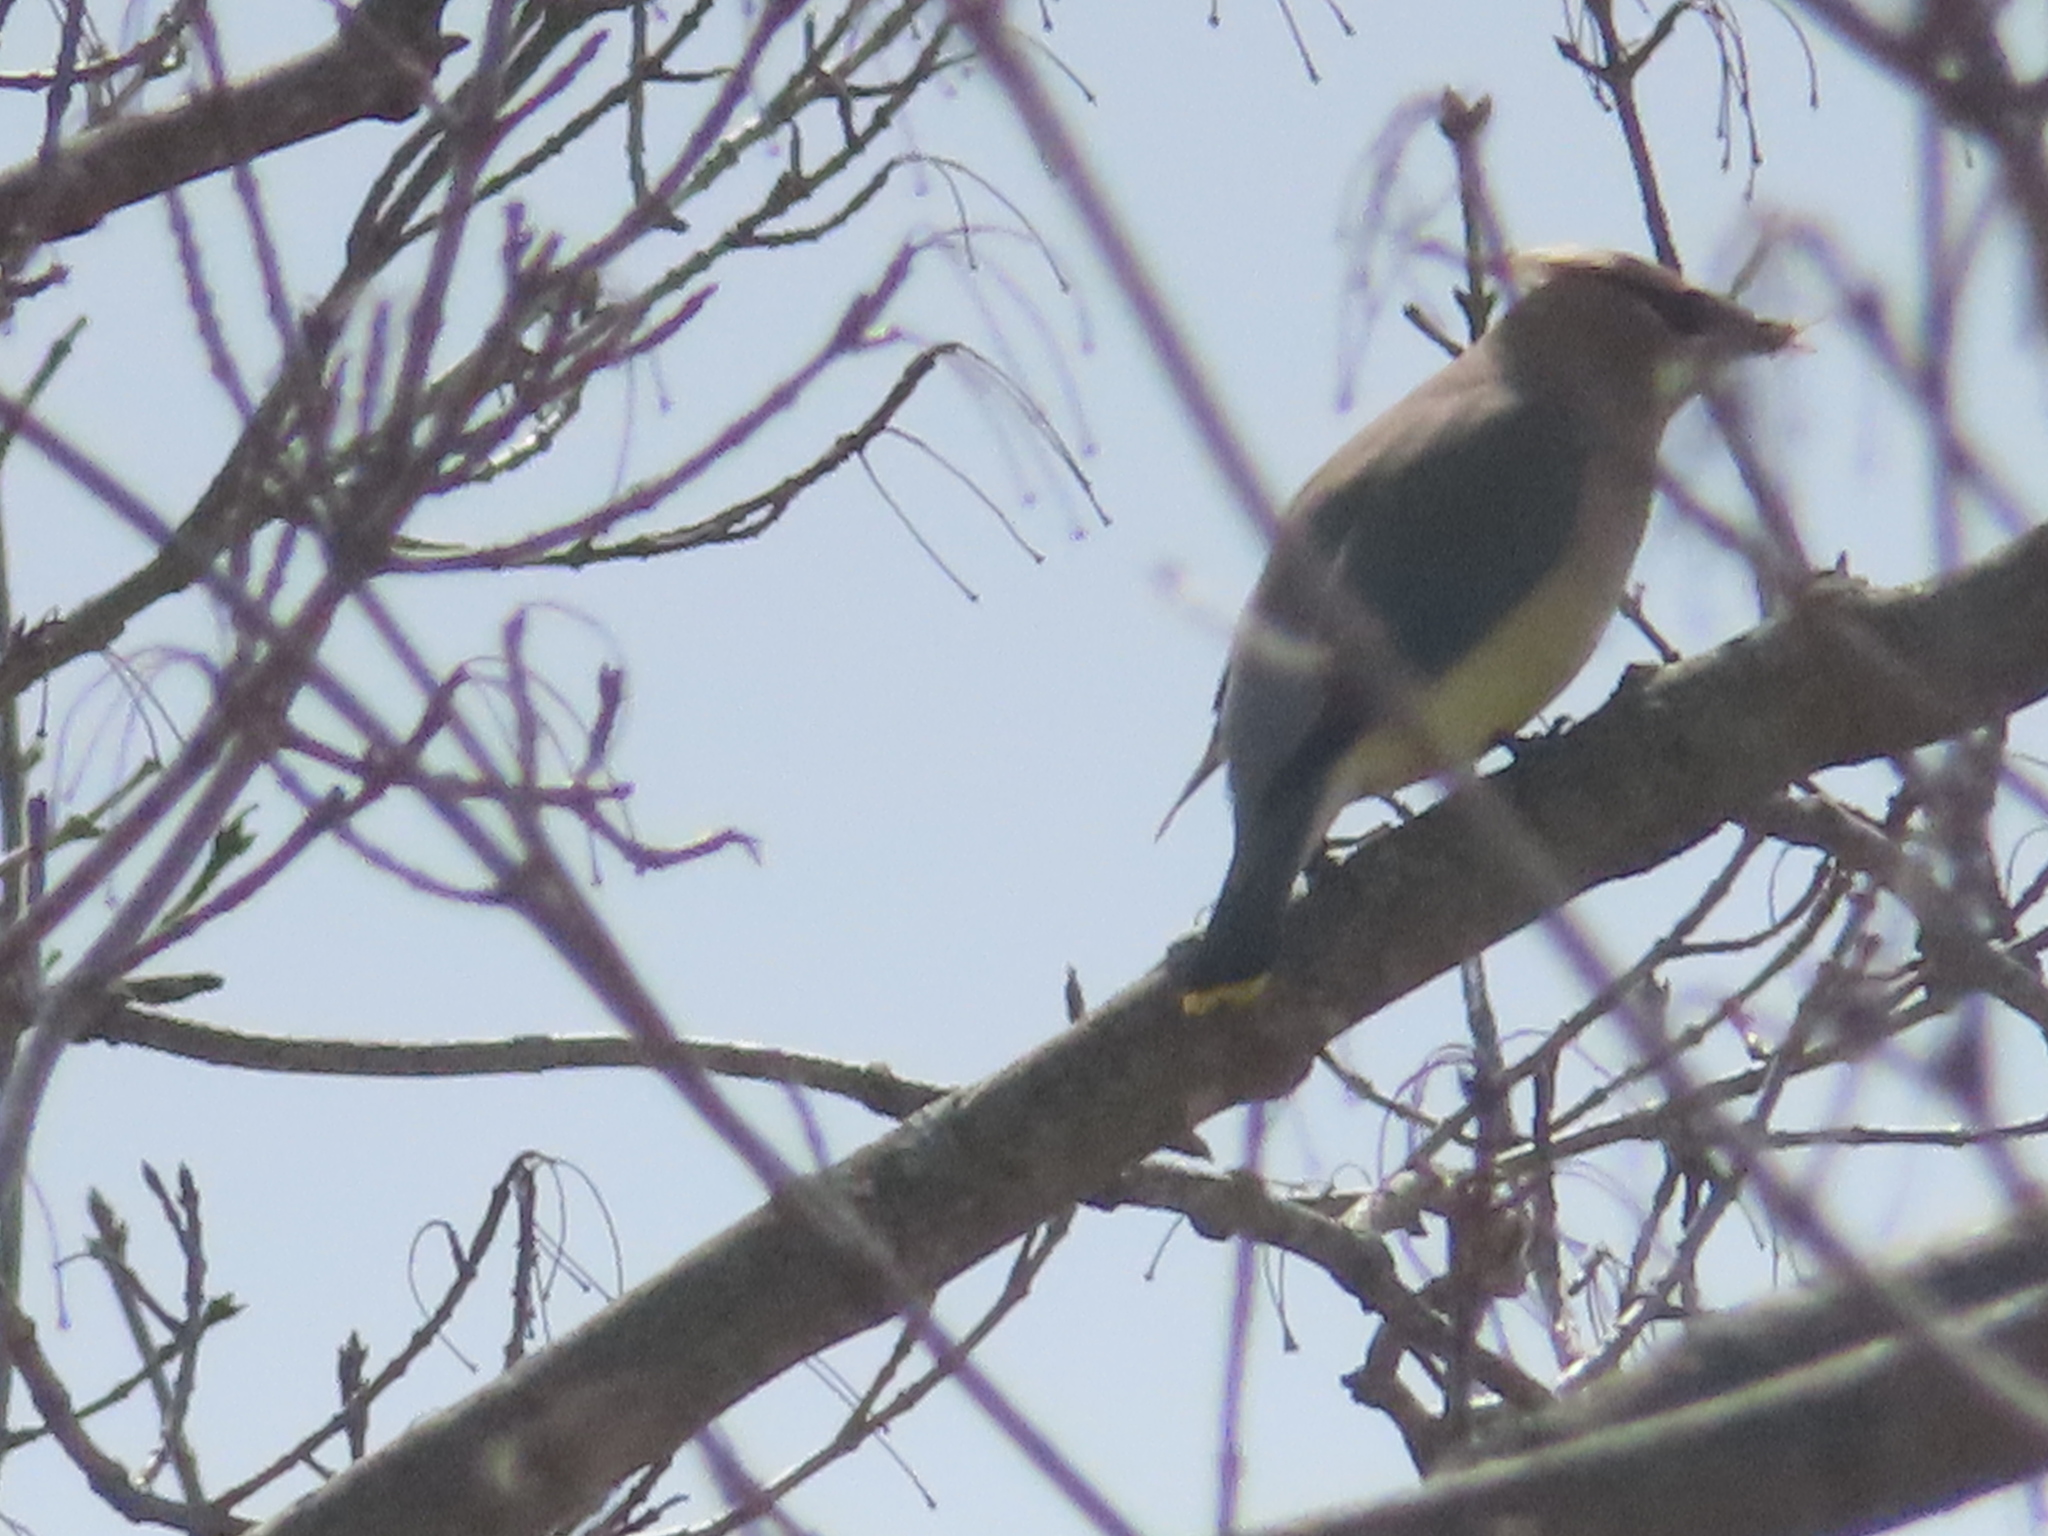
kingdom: Animalia
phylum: Chordata
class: Aves
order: Passeriformes
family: Bombycillidae
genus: Bombycilla
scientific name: Bombycilla cedrorum
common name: Cedar waxwing
